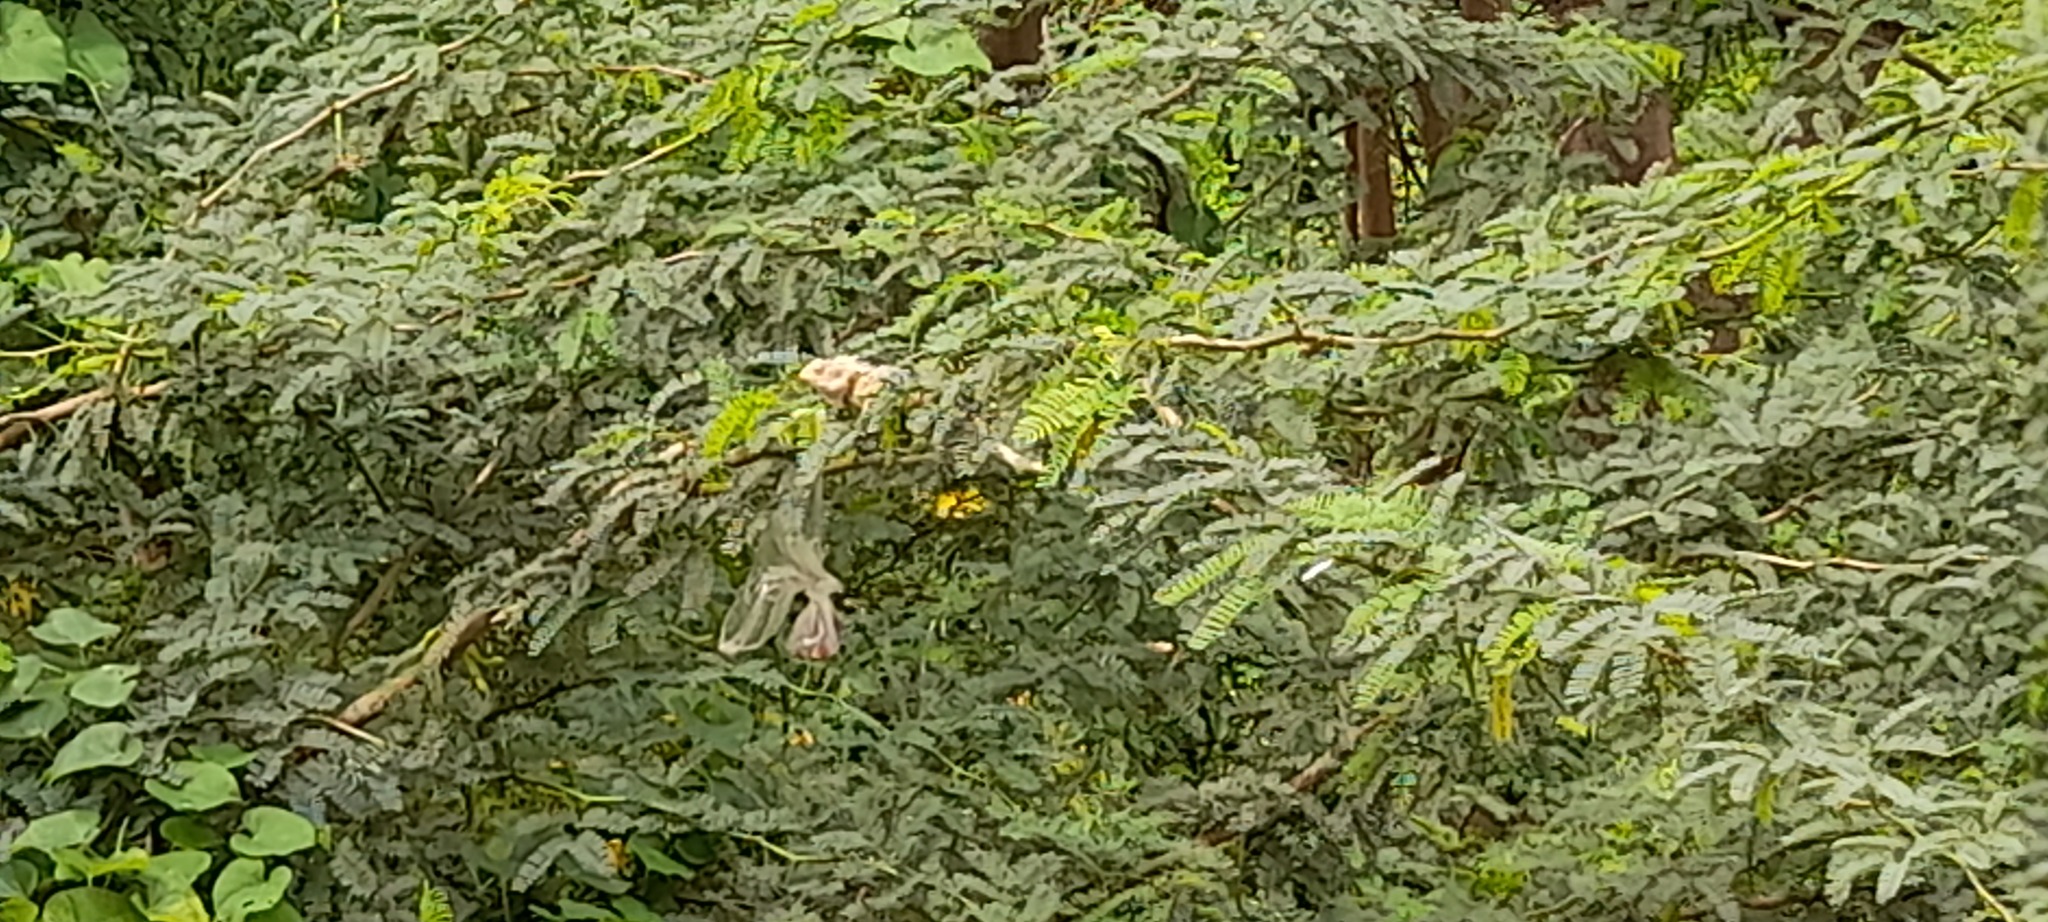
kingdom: Animalia
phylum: Chordata
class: Squamata
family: Agamidae
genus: Calotes
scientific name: Calotes versicolor
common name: Oriental garden lizard
